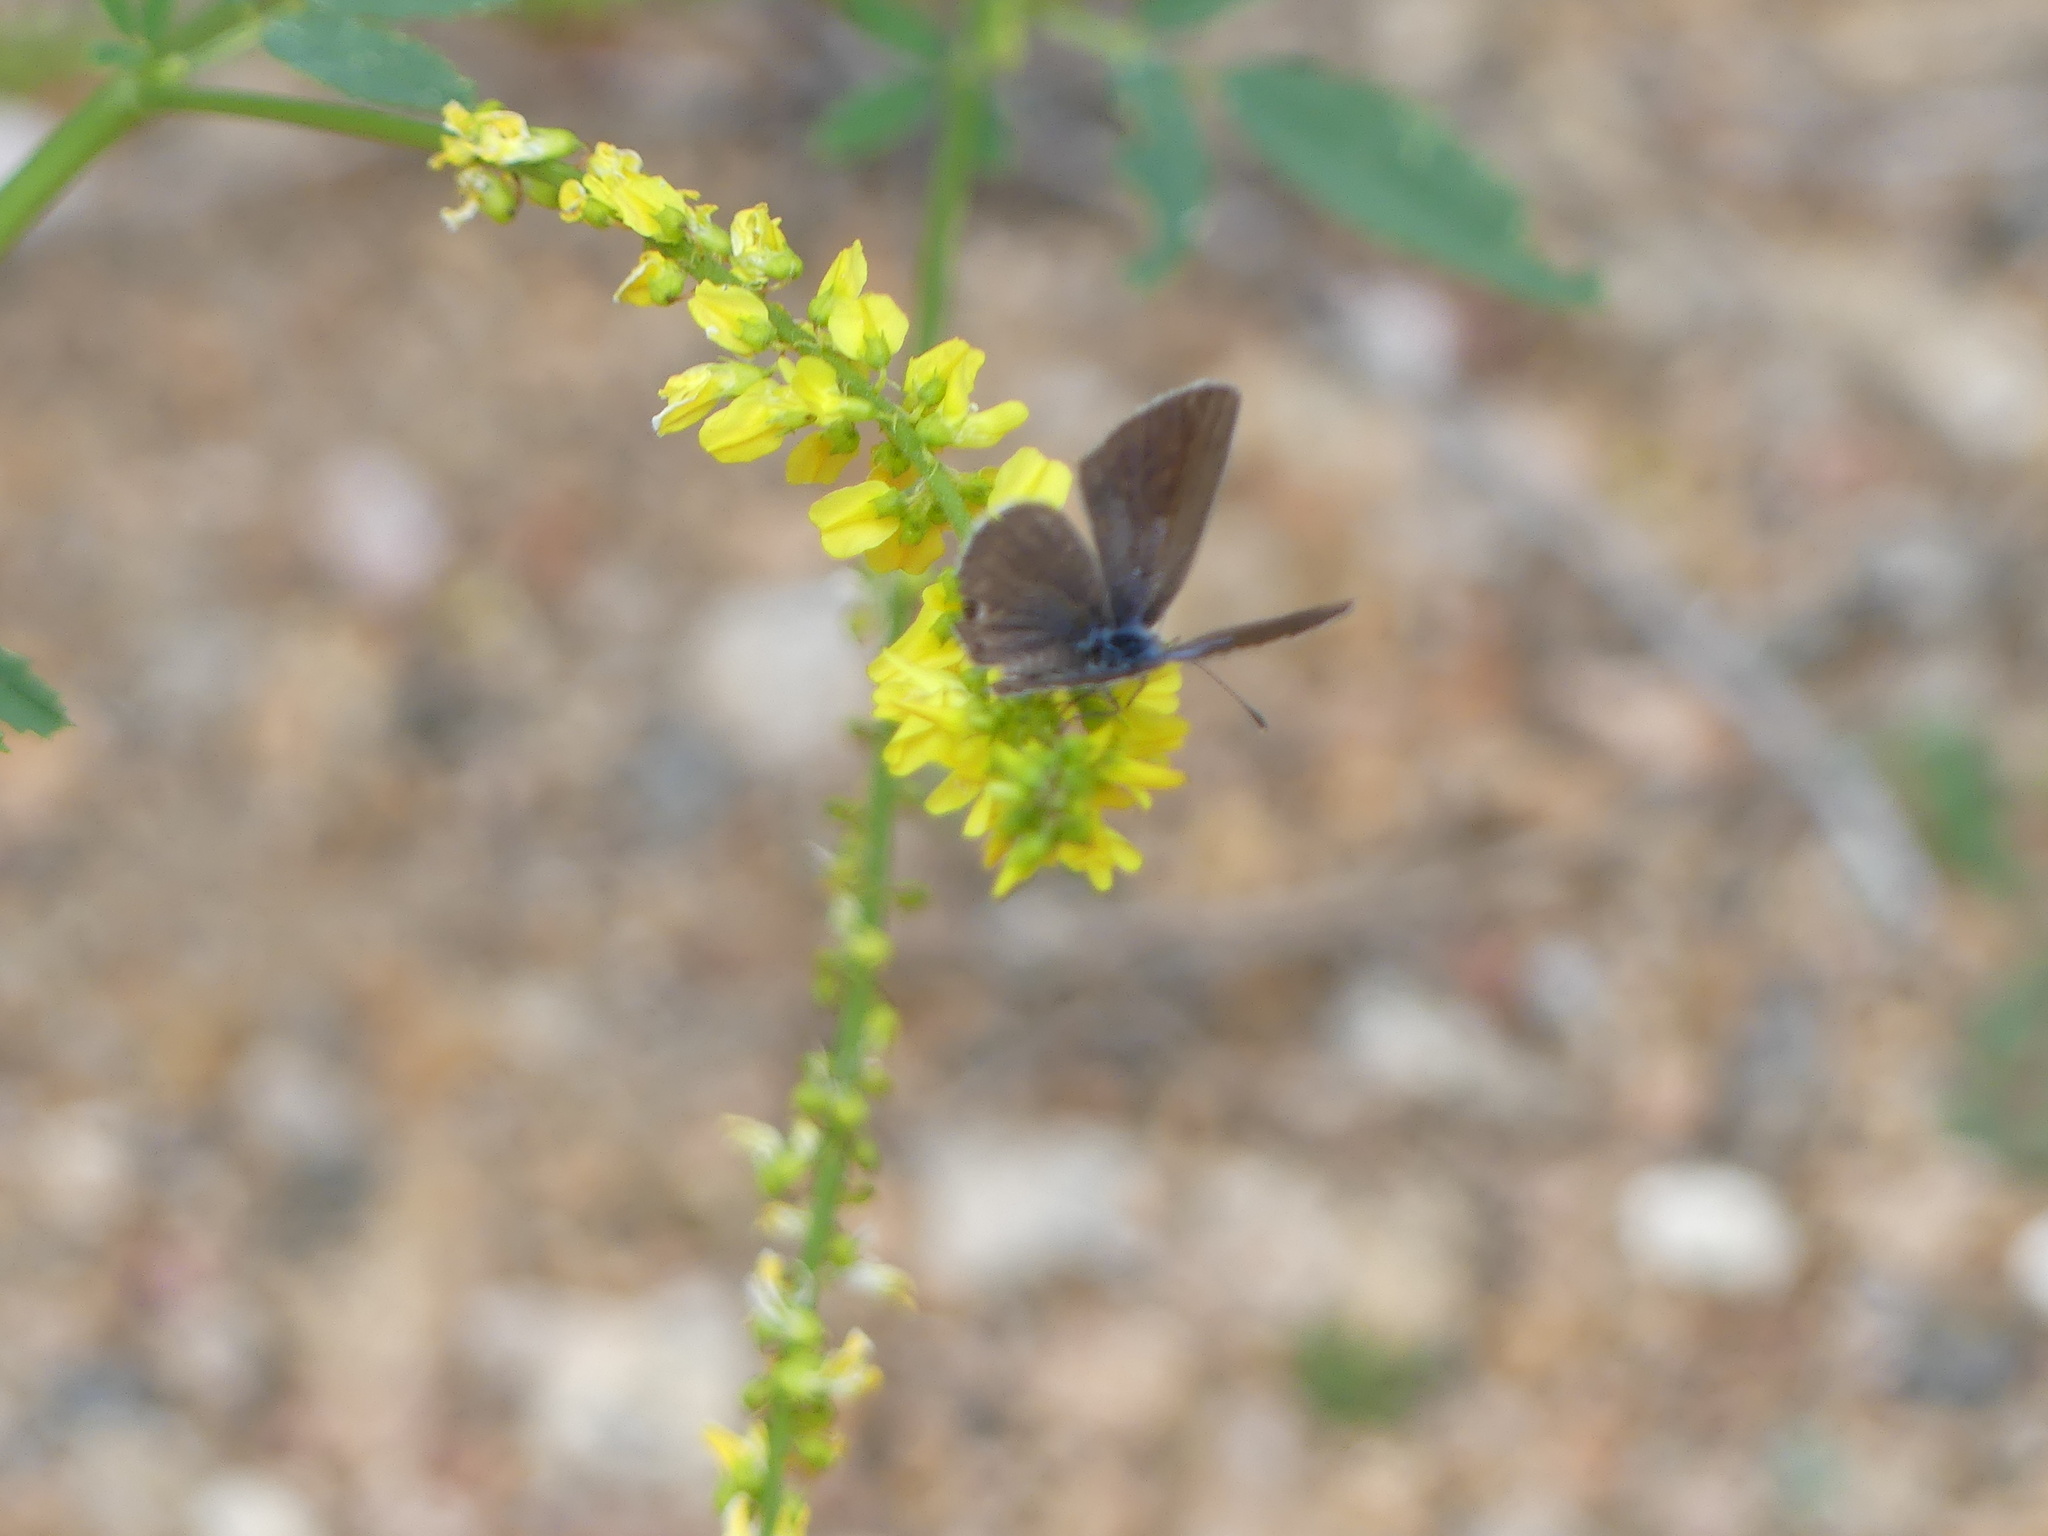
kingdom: Animalia
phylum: Arthropoda
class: Insecta
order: Lepidoptera
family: Lycaenidae
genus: Echinargus
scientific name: Echinargus isola
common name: Reakirt's blue
